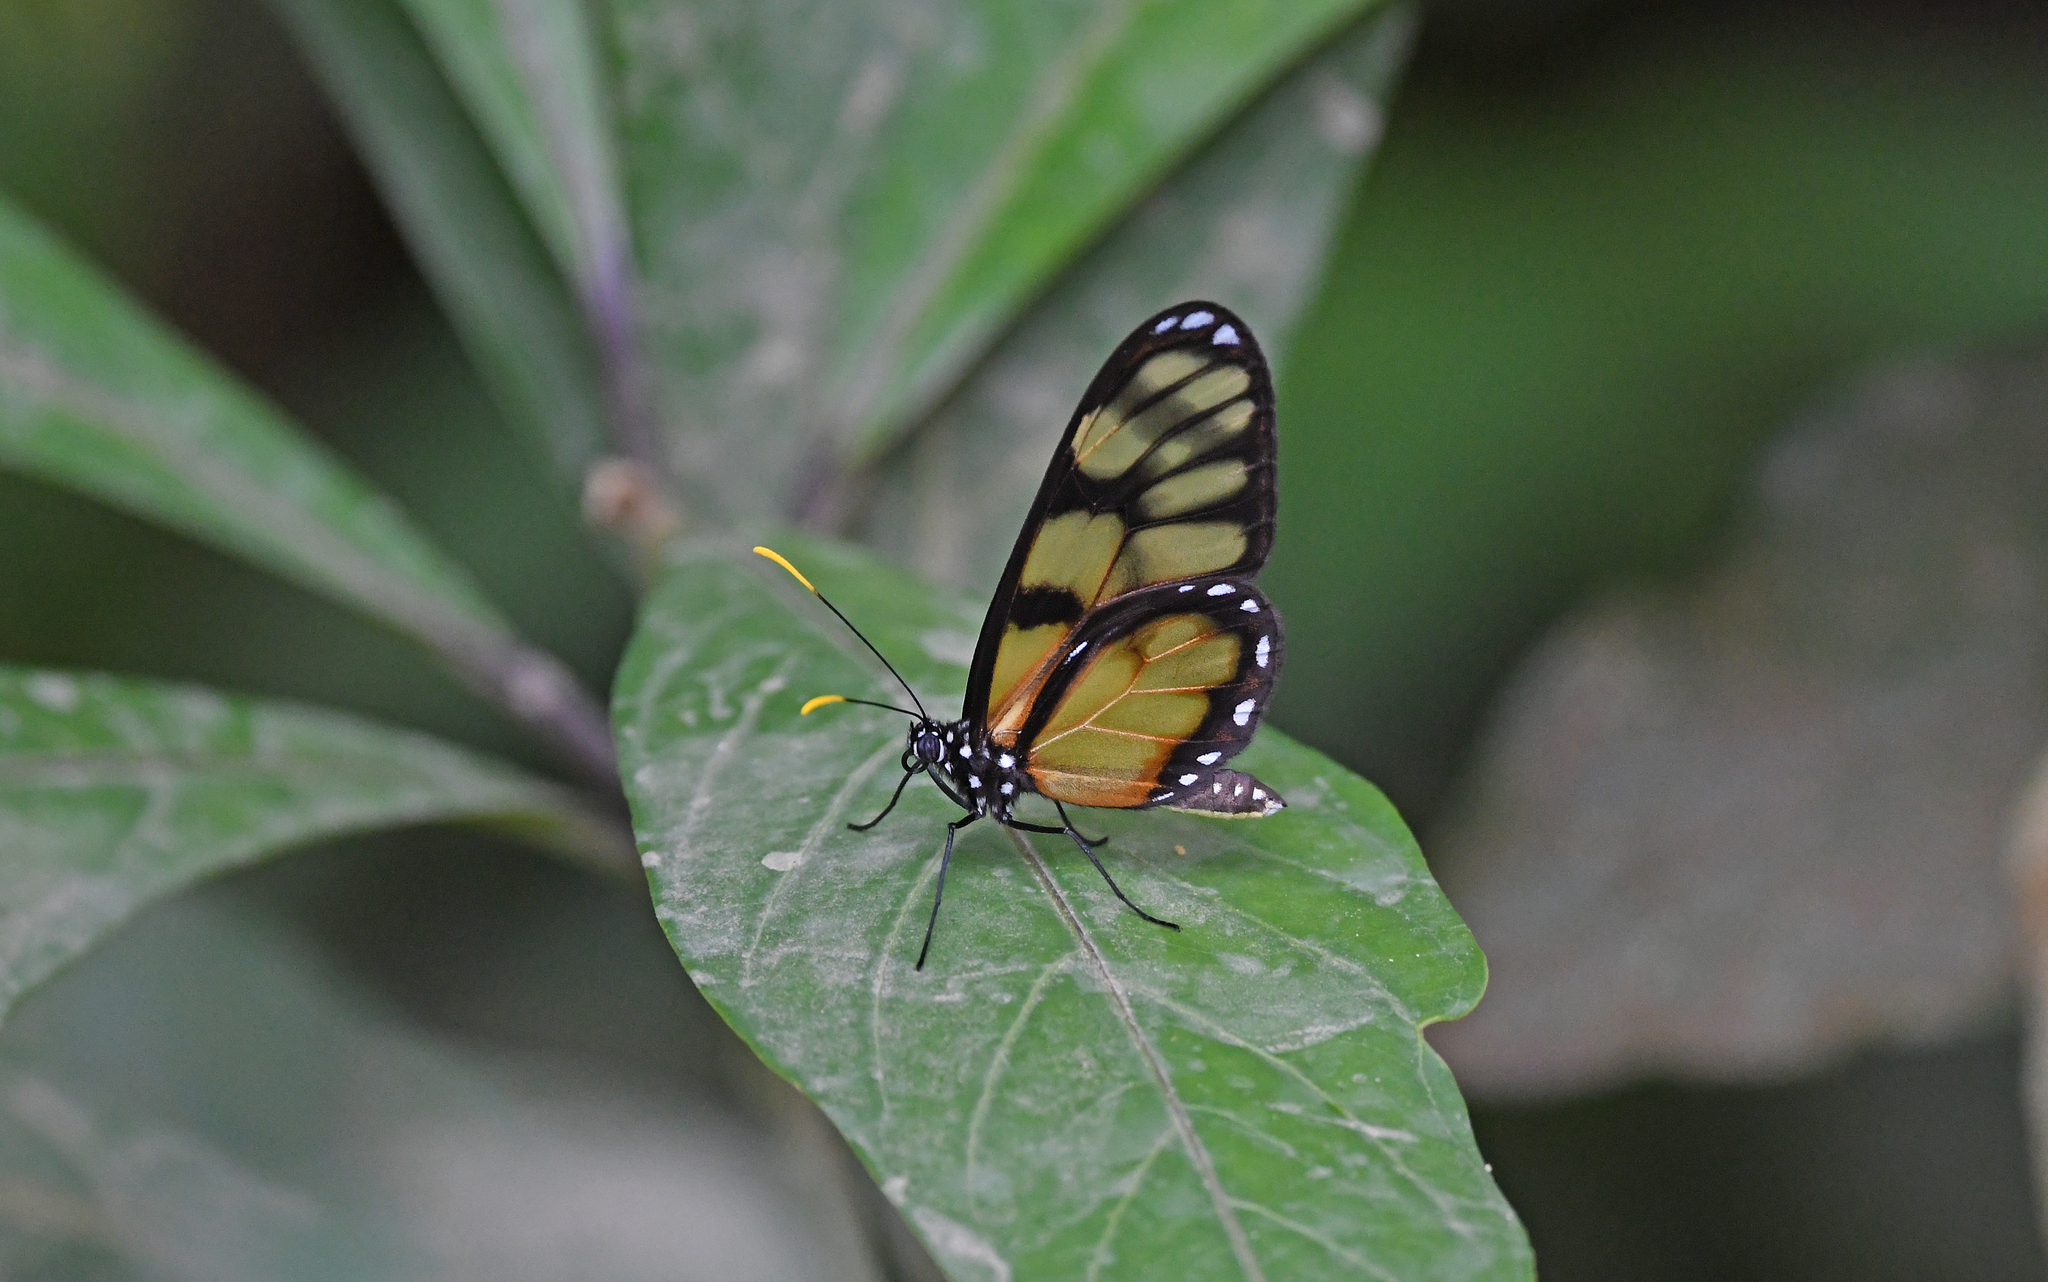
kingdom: Animalia
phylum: Arthropoda
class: Insecta
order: Lepidoptera
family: Nymphalidae
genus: Dircenna
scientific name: Dircenna dero
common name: Dero clearwing
